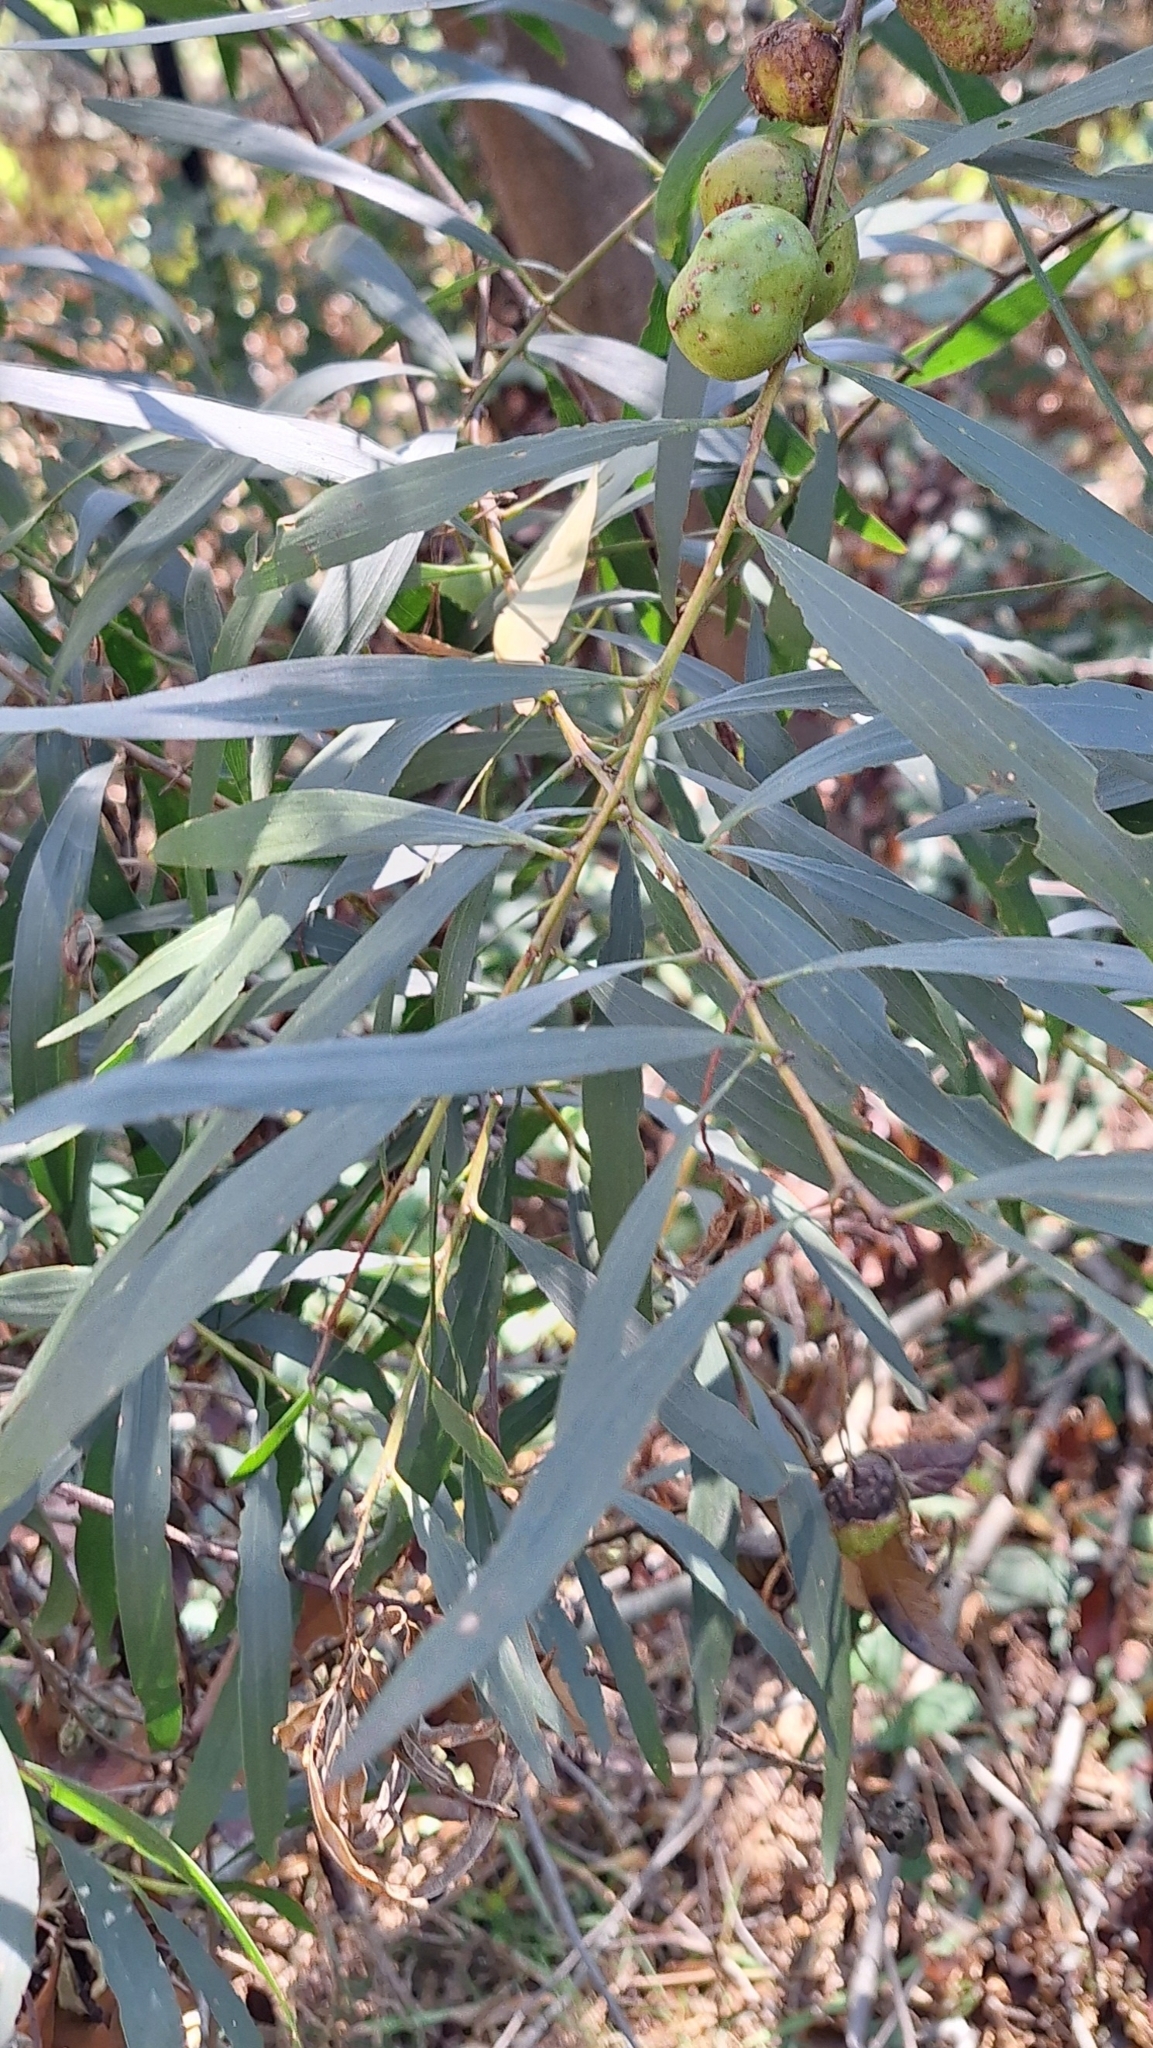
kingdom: Plantae
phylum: Tracheophyta
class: Magnoliopsida
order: Fabales
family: Fabaceae
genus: Acacia
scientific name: Acacia longifolia
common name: Sydney golden wattle
